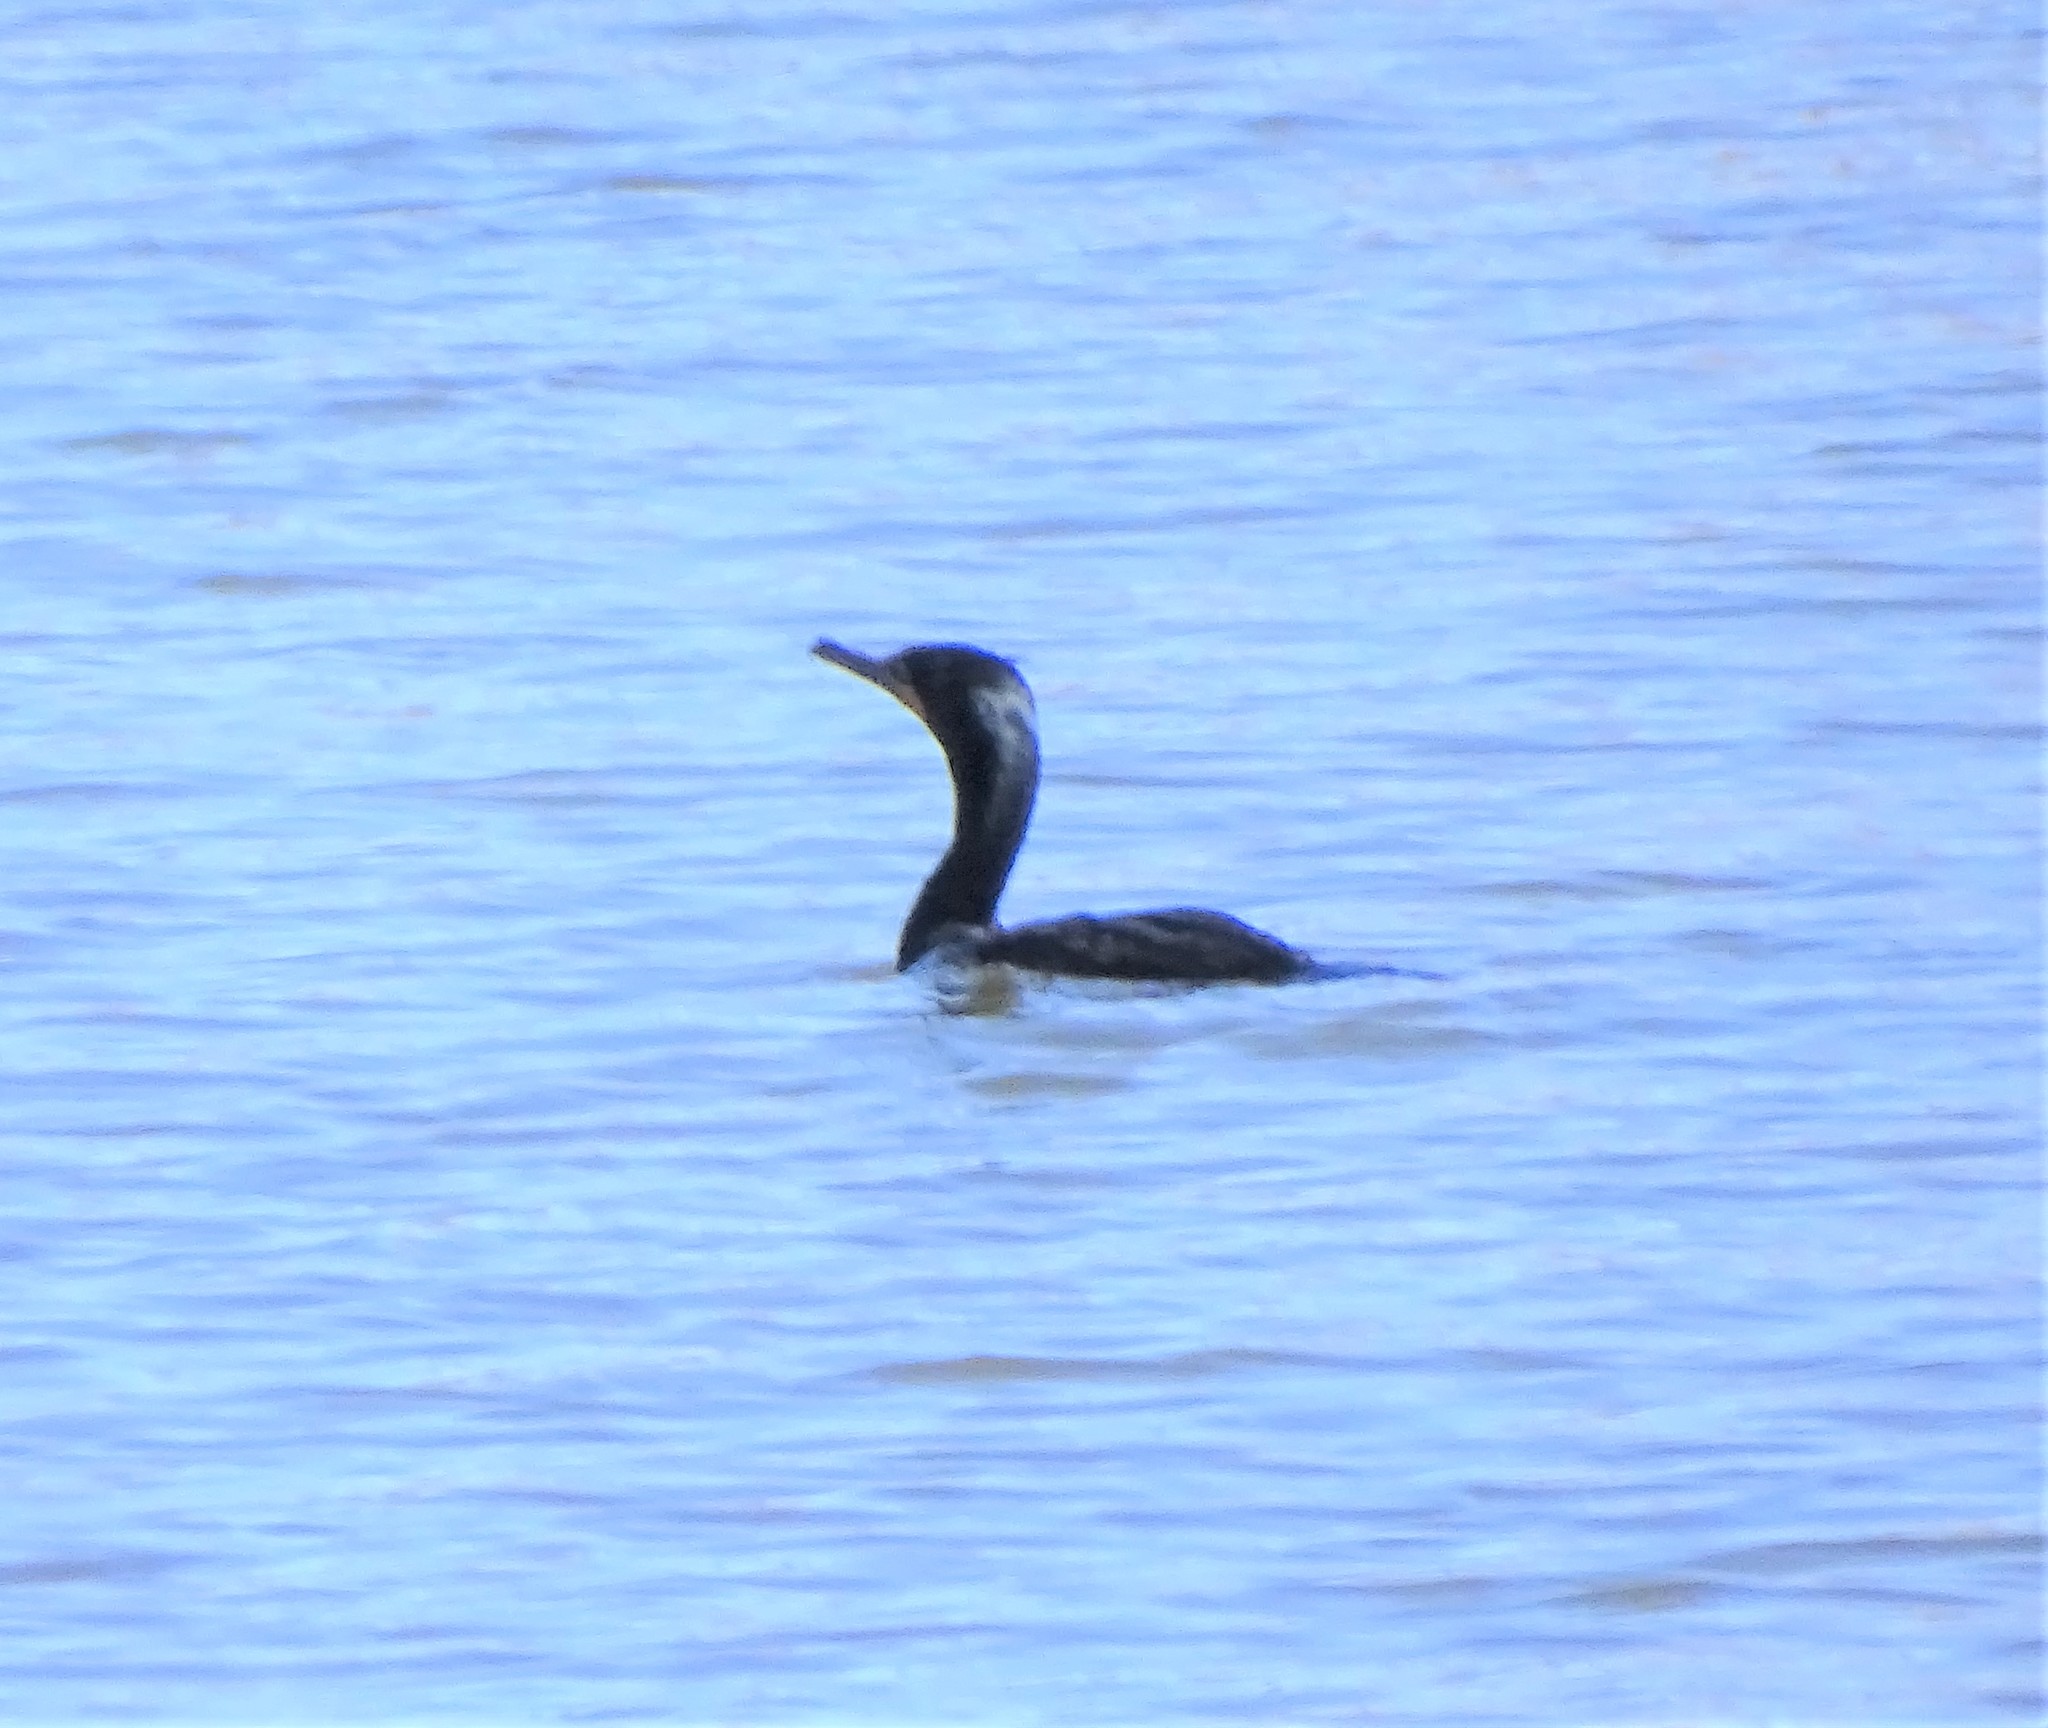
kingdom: Animalia
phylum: Chordata
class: Aves
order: Suliformes
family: Phalacrocoracidae
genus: Phalacrocorax
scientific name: Phalacrocorax auritus
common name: Double-crested cormorant
